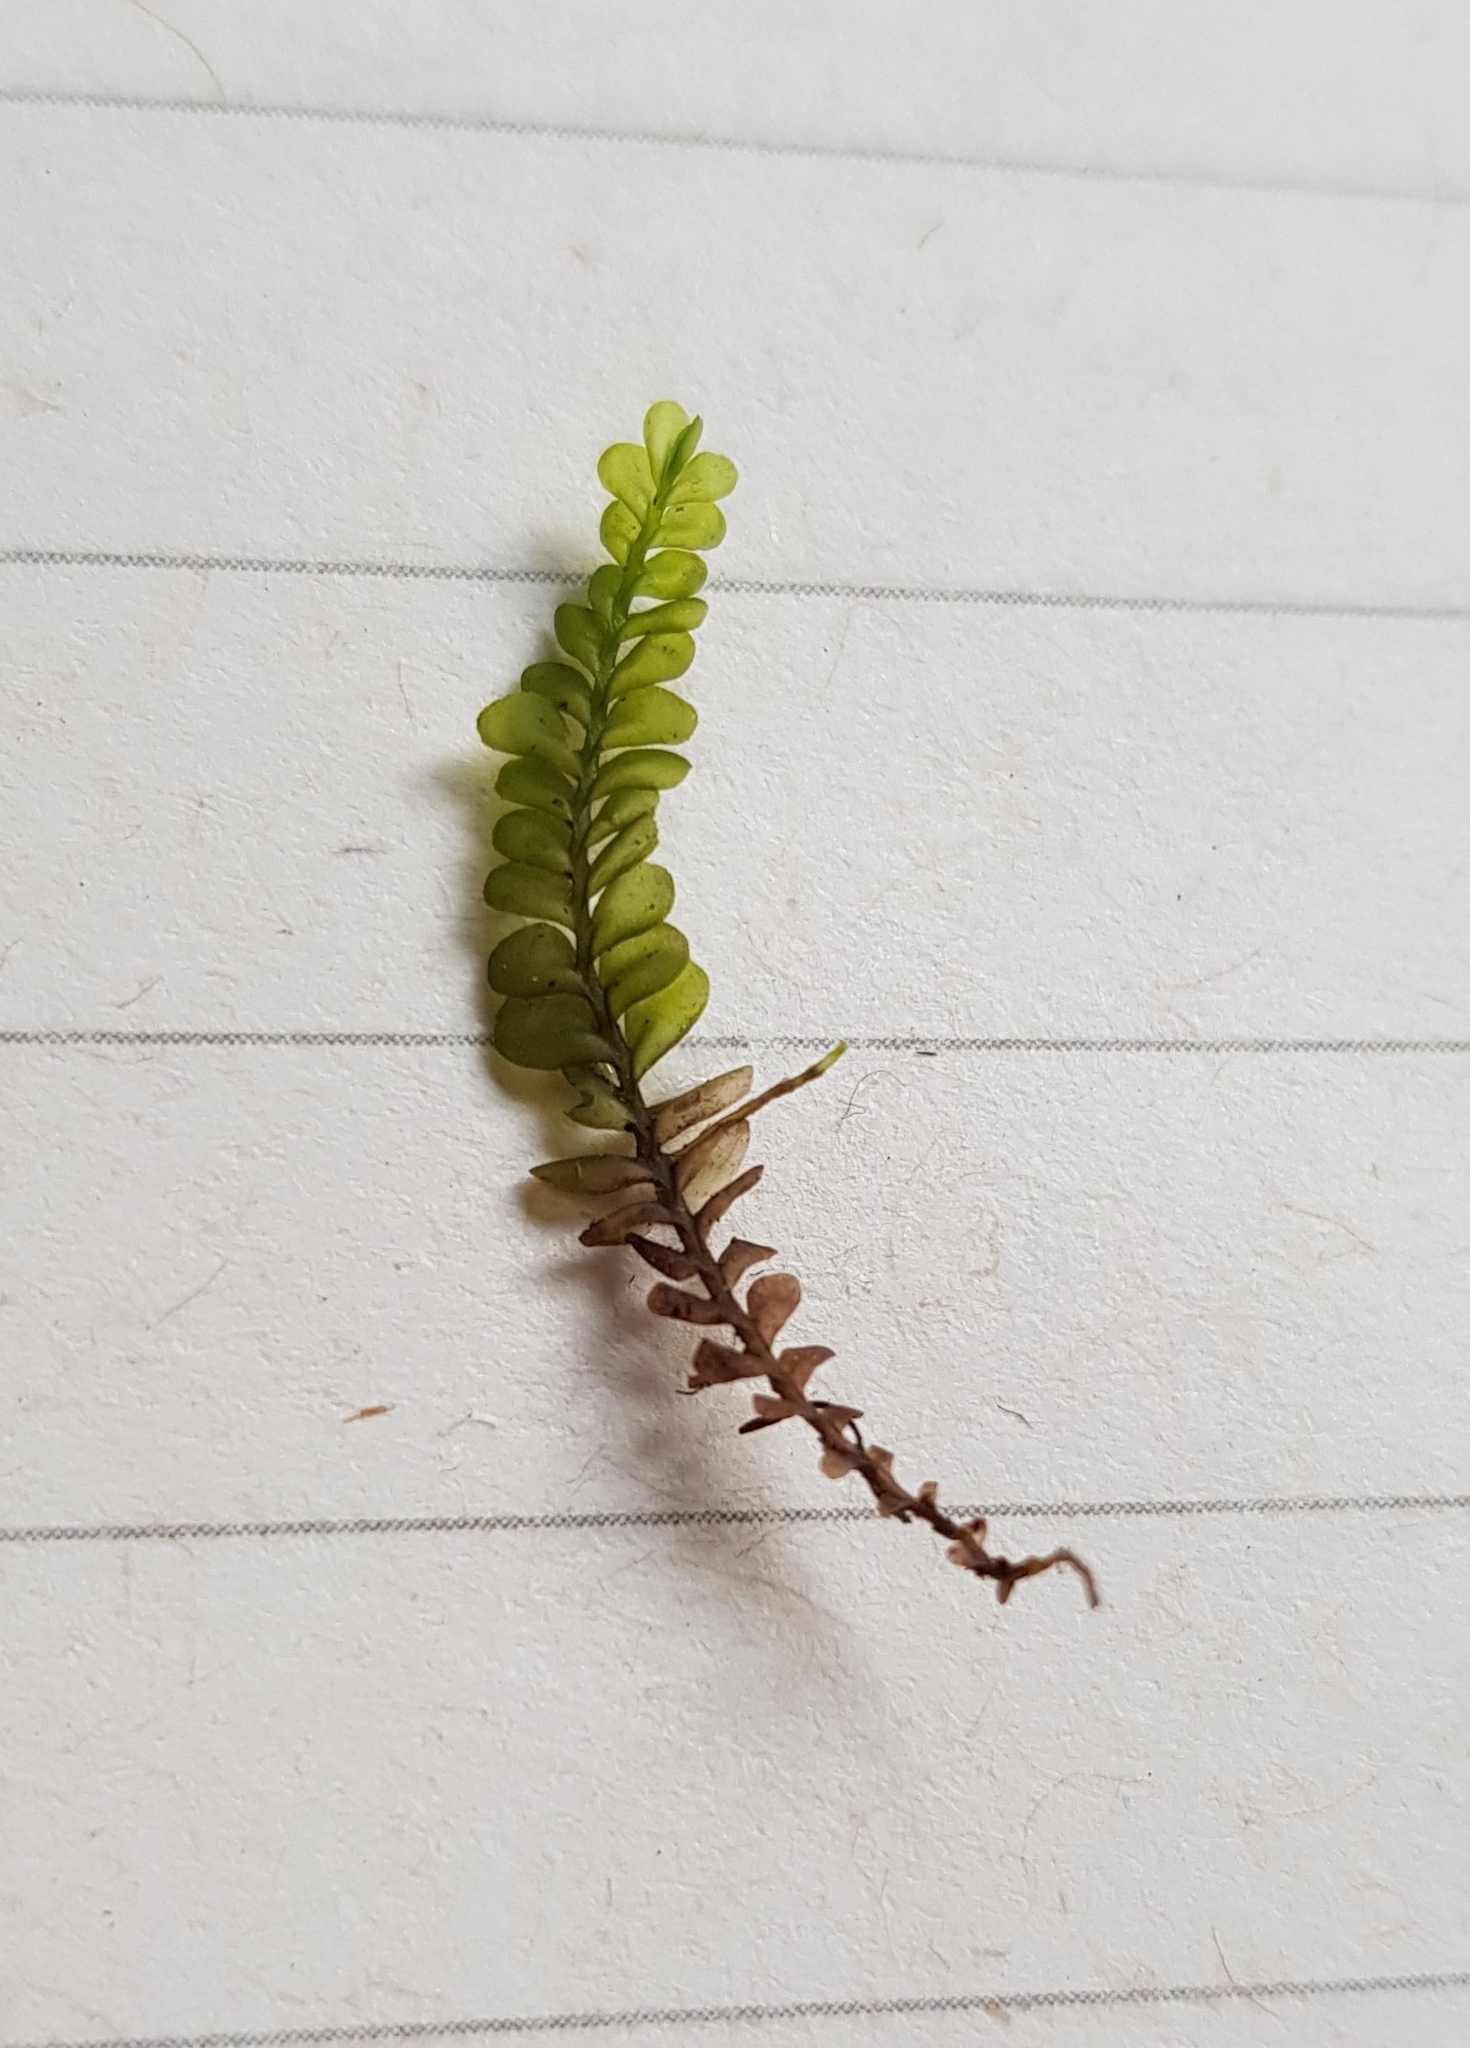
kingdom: Plantae
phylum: Marchantiophyta
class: Jungermanniopsida
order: Jungermanniales
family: Plagiochilaceae
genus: Plagiochila
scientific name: Plagiochila porelloides
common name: Lesser featherwort
